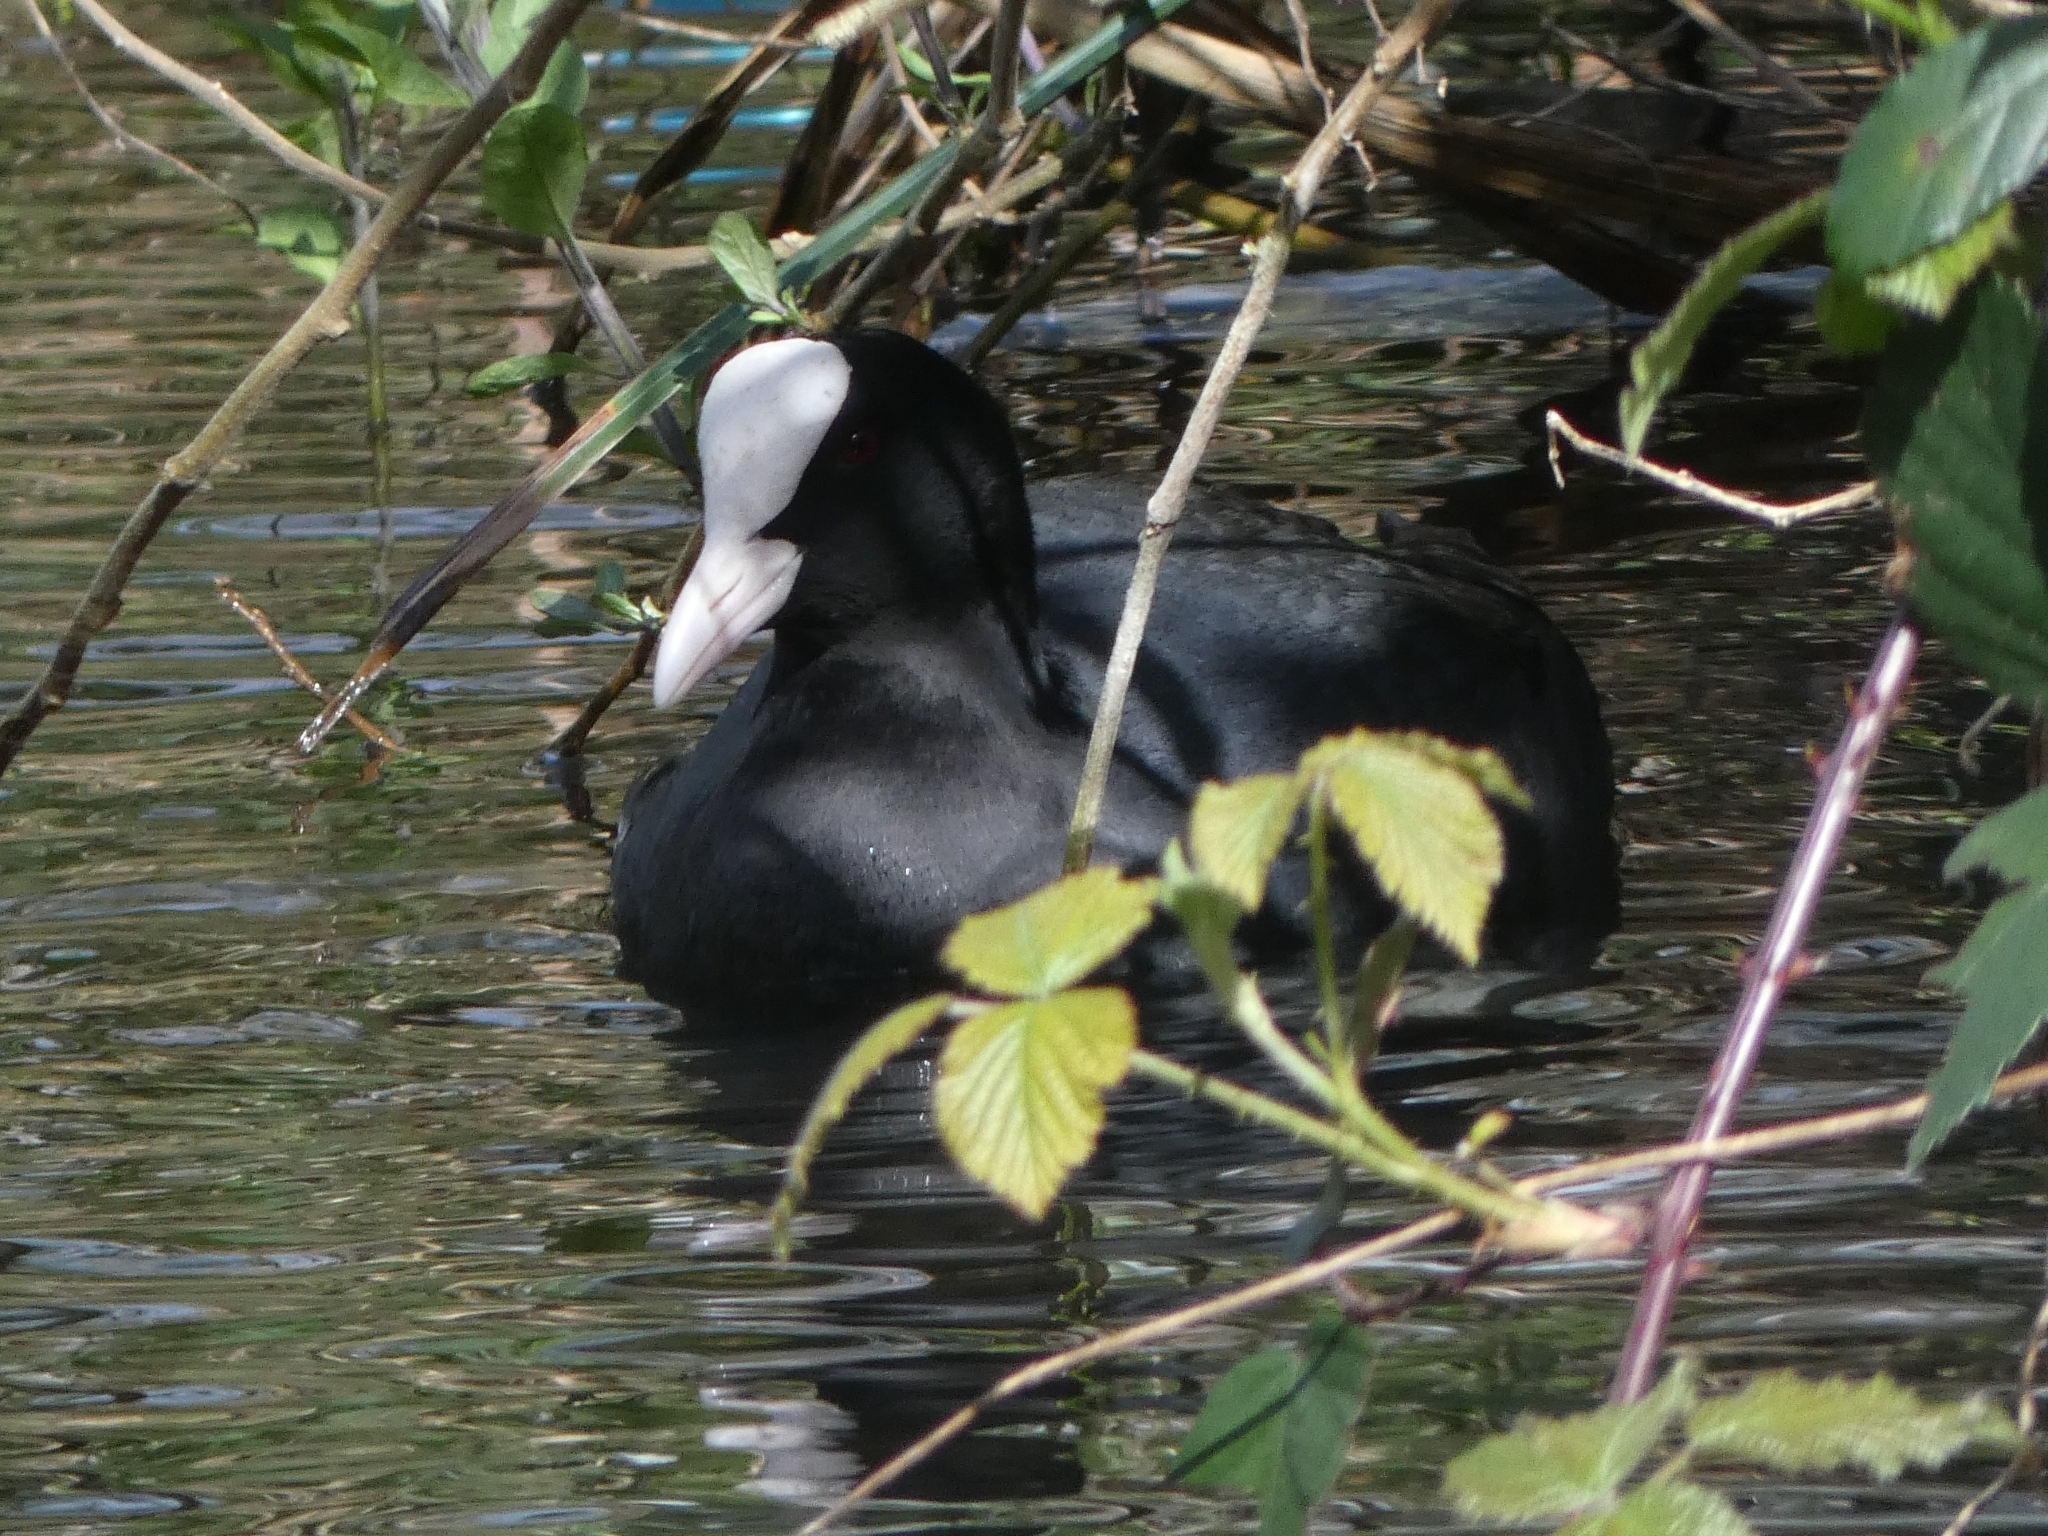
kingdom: Animalia
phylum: Chordata
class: Aves
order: Gruiformes
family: Rallidae
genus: Fulica
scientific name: Fulica atra
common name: Eurasian coot
